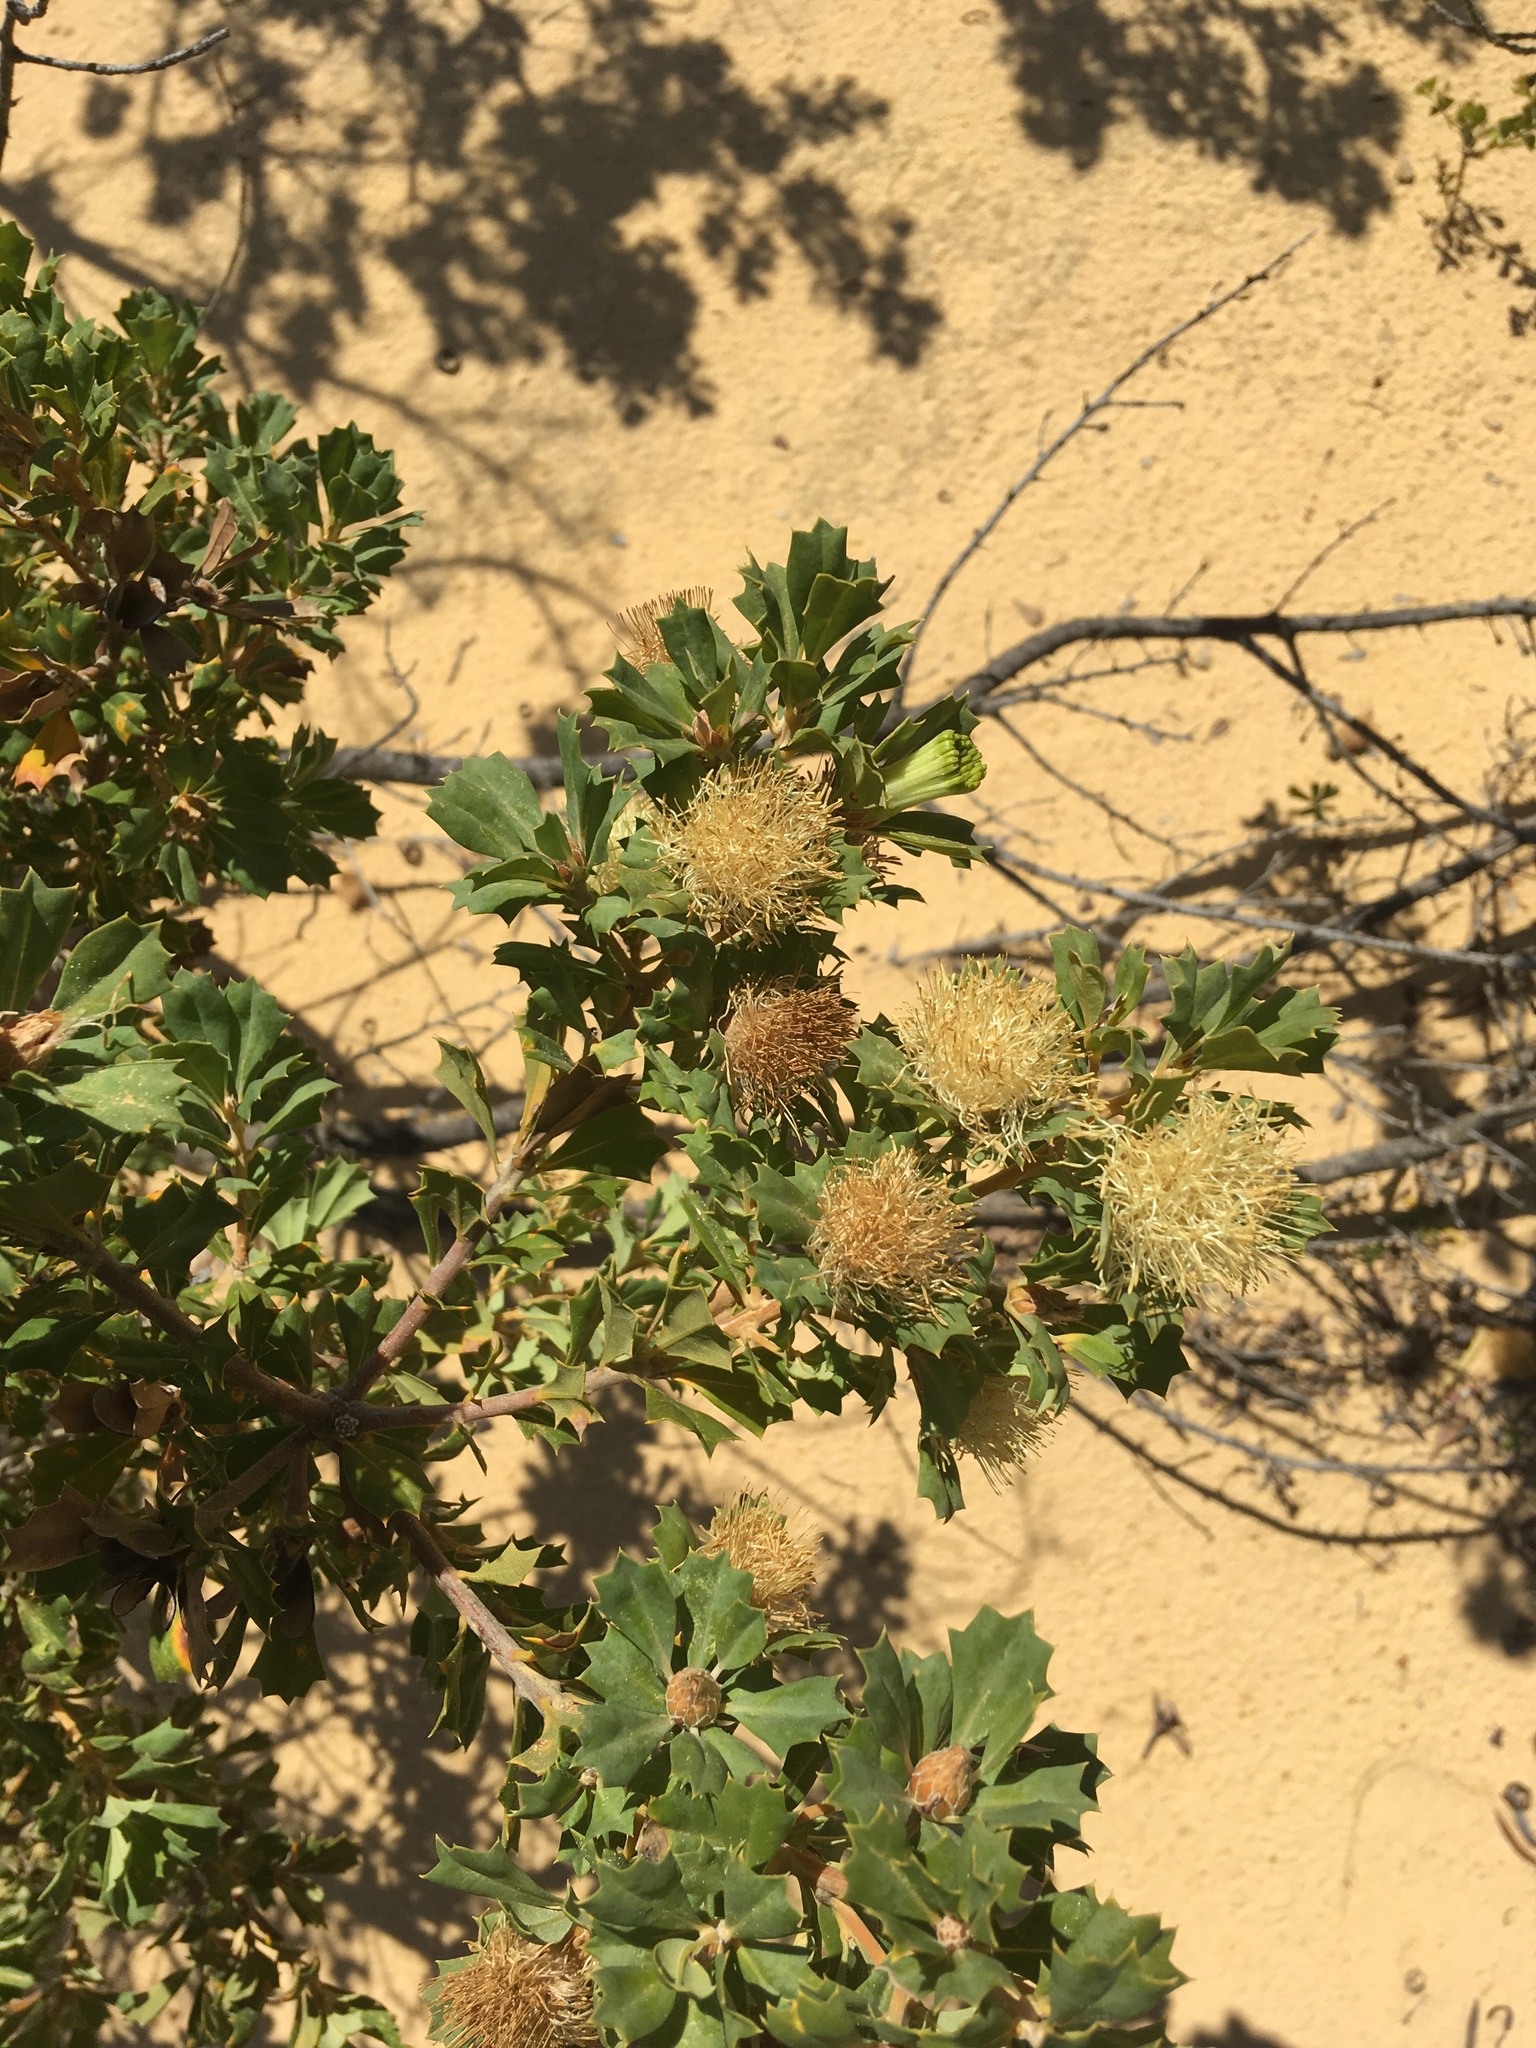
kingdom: Plantae
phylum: Tracheophyta
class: Magnoliopsida
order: Proteales
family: Proteaceae
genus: Banksia
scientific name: Banksia sessilis
